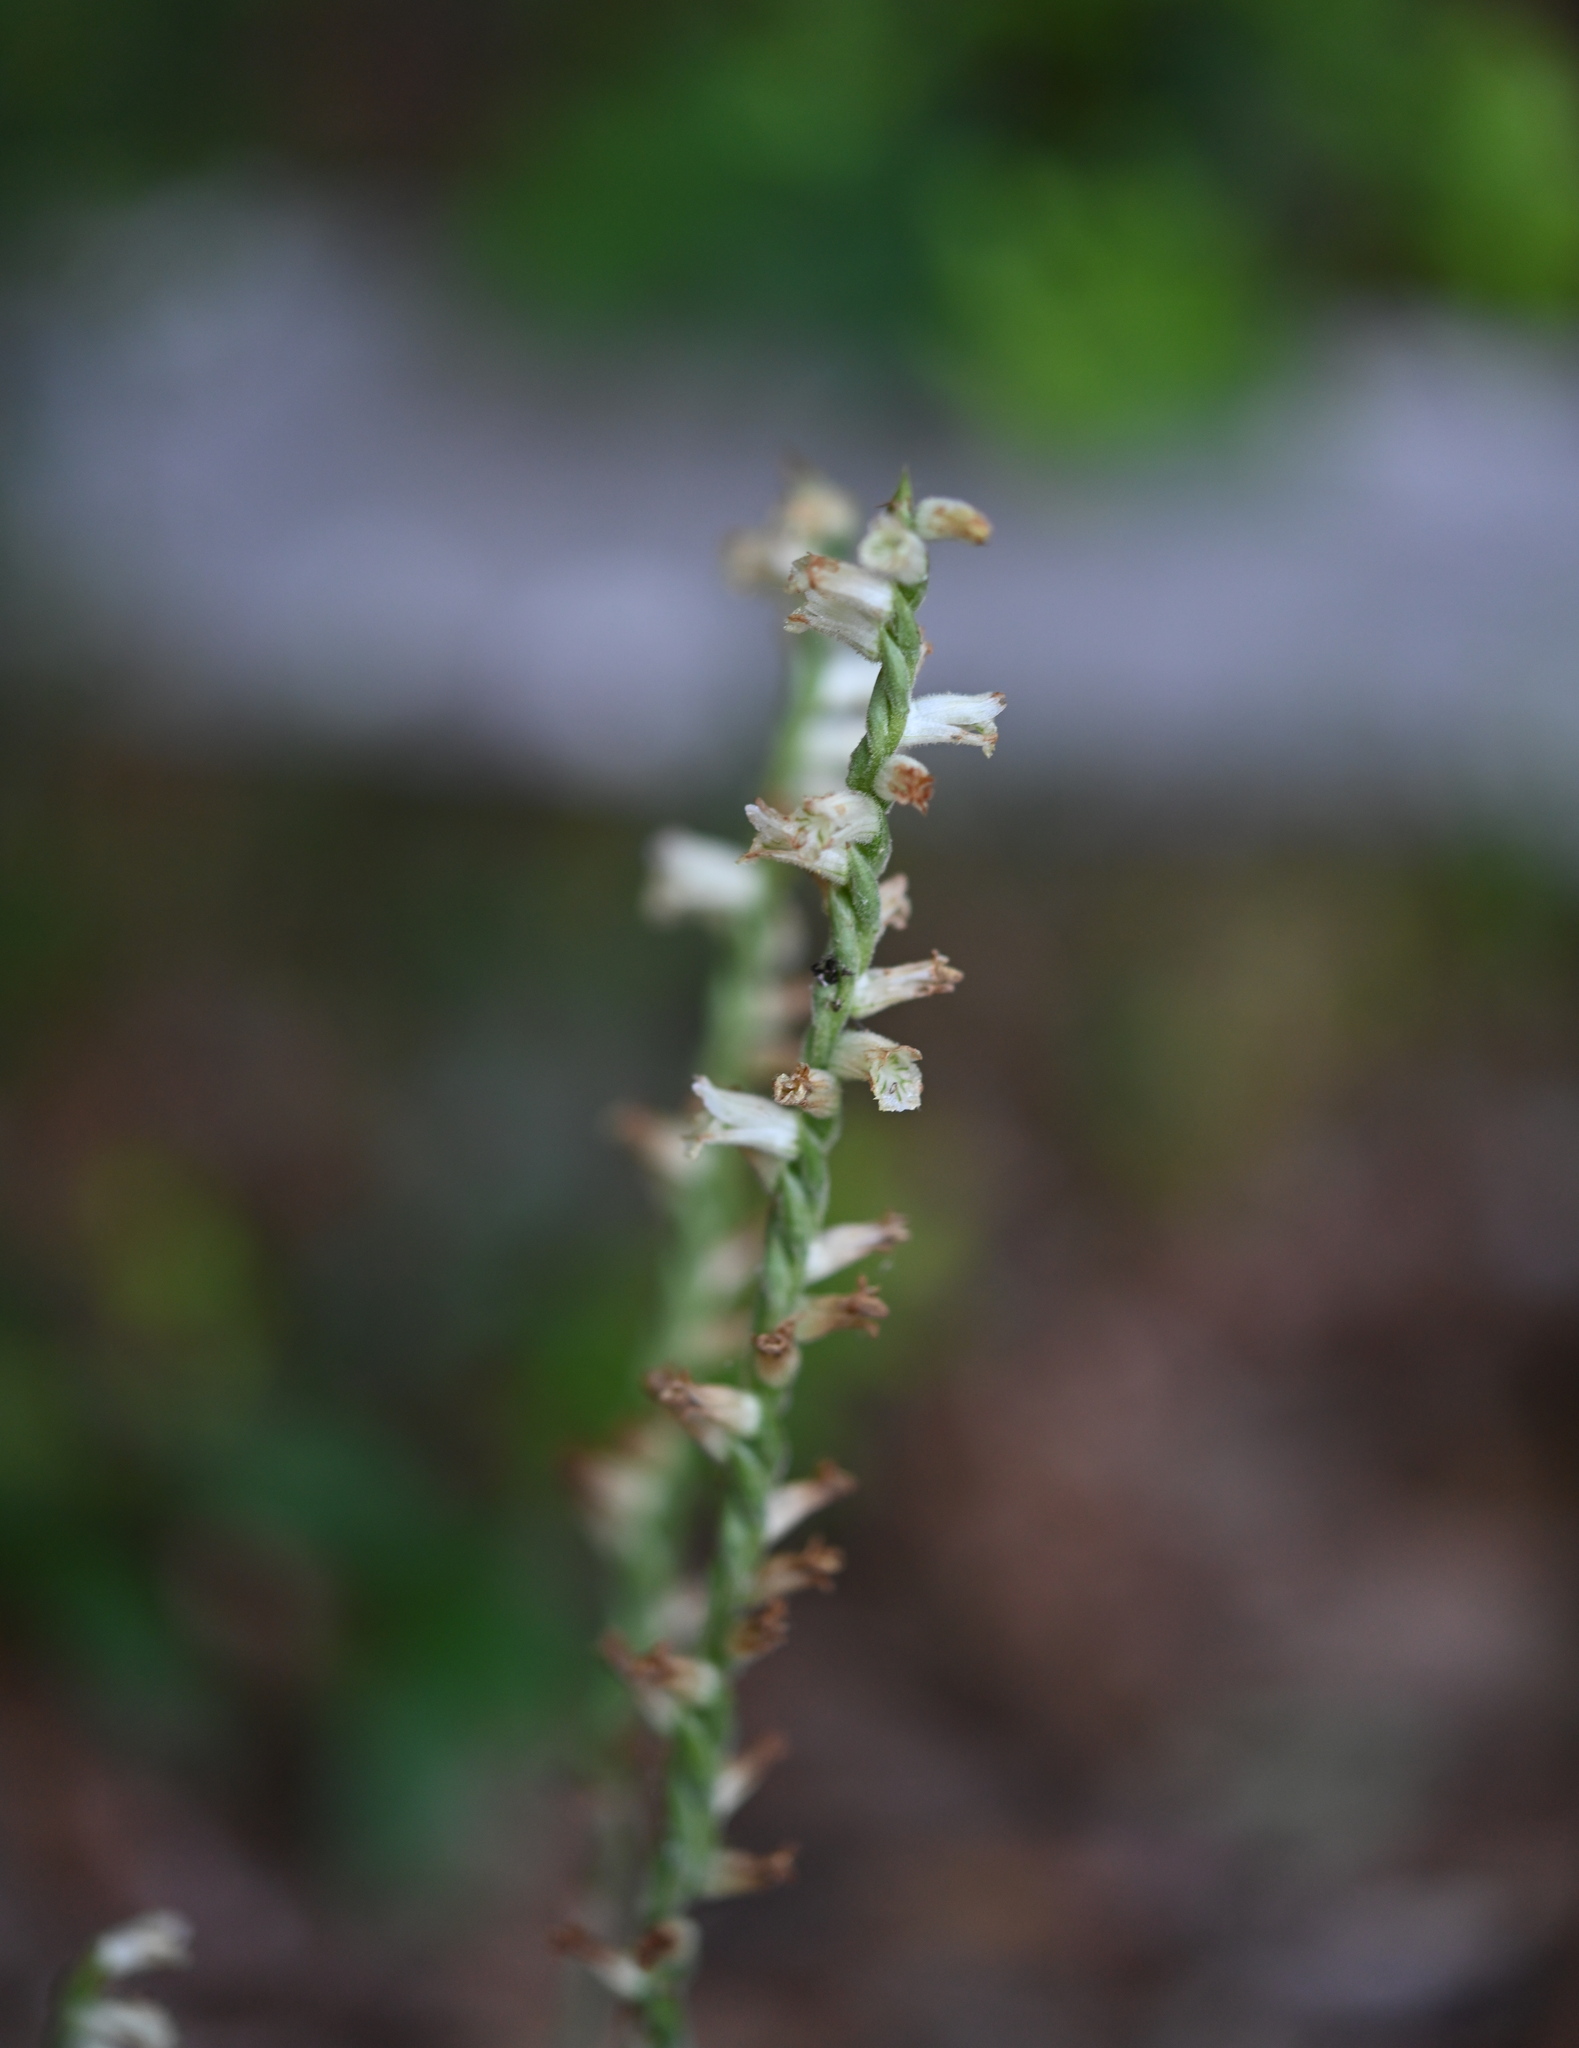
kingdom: Plantae
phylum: Tracheophyta
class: Liliopsida
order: Asparagales
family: Orchidaceae
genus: Spiranthes
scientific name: Spiranthes praecox
